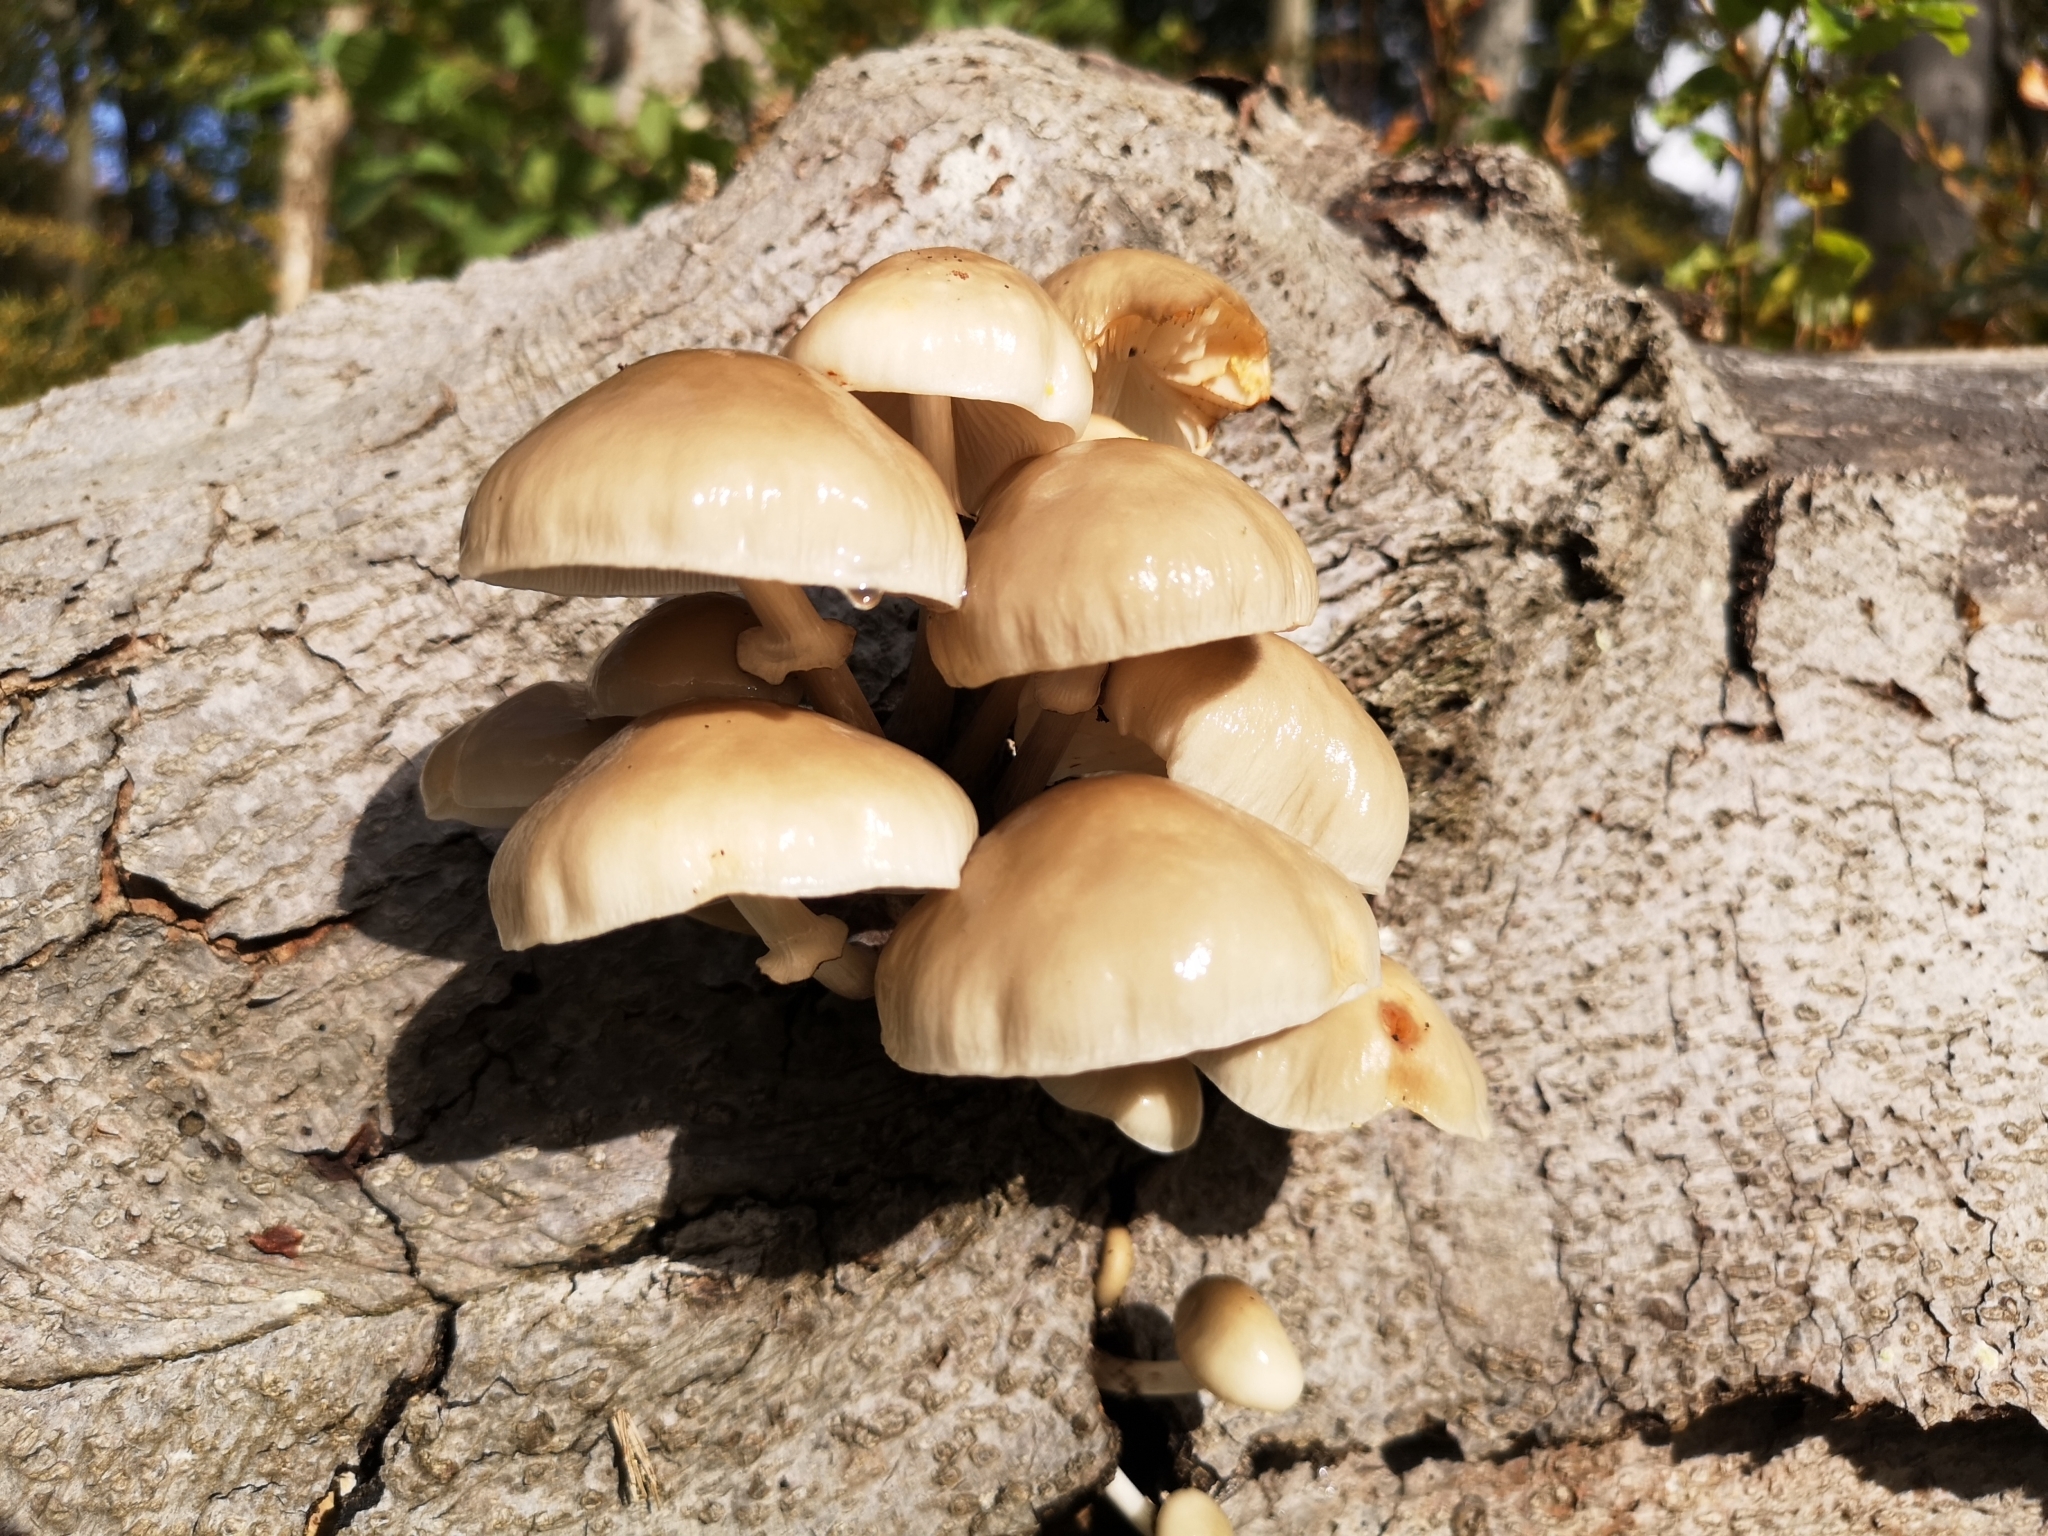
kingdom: Fungi
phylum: Basidiomycota
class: Agaricomycetes
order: Agaricales
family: Physalacriaceae
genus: Mucidula
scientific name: Mucidula mucida
